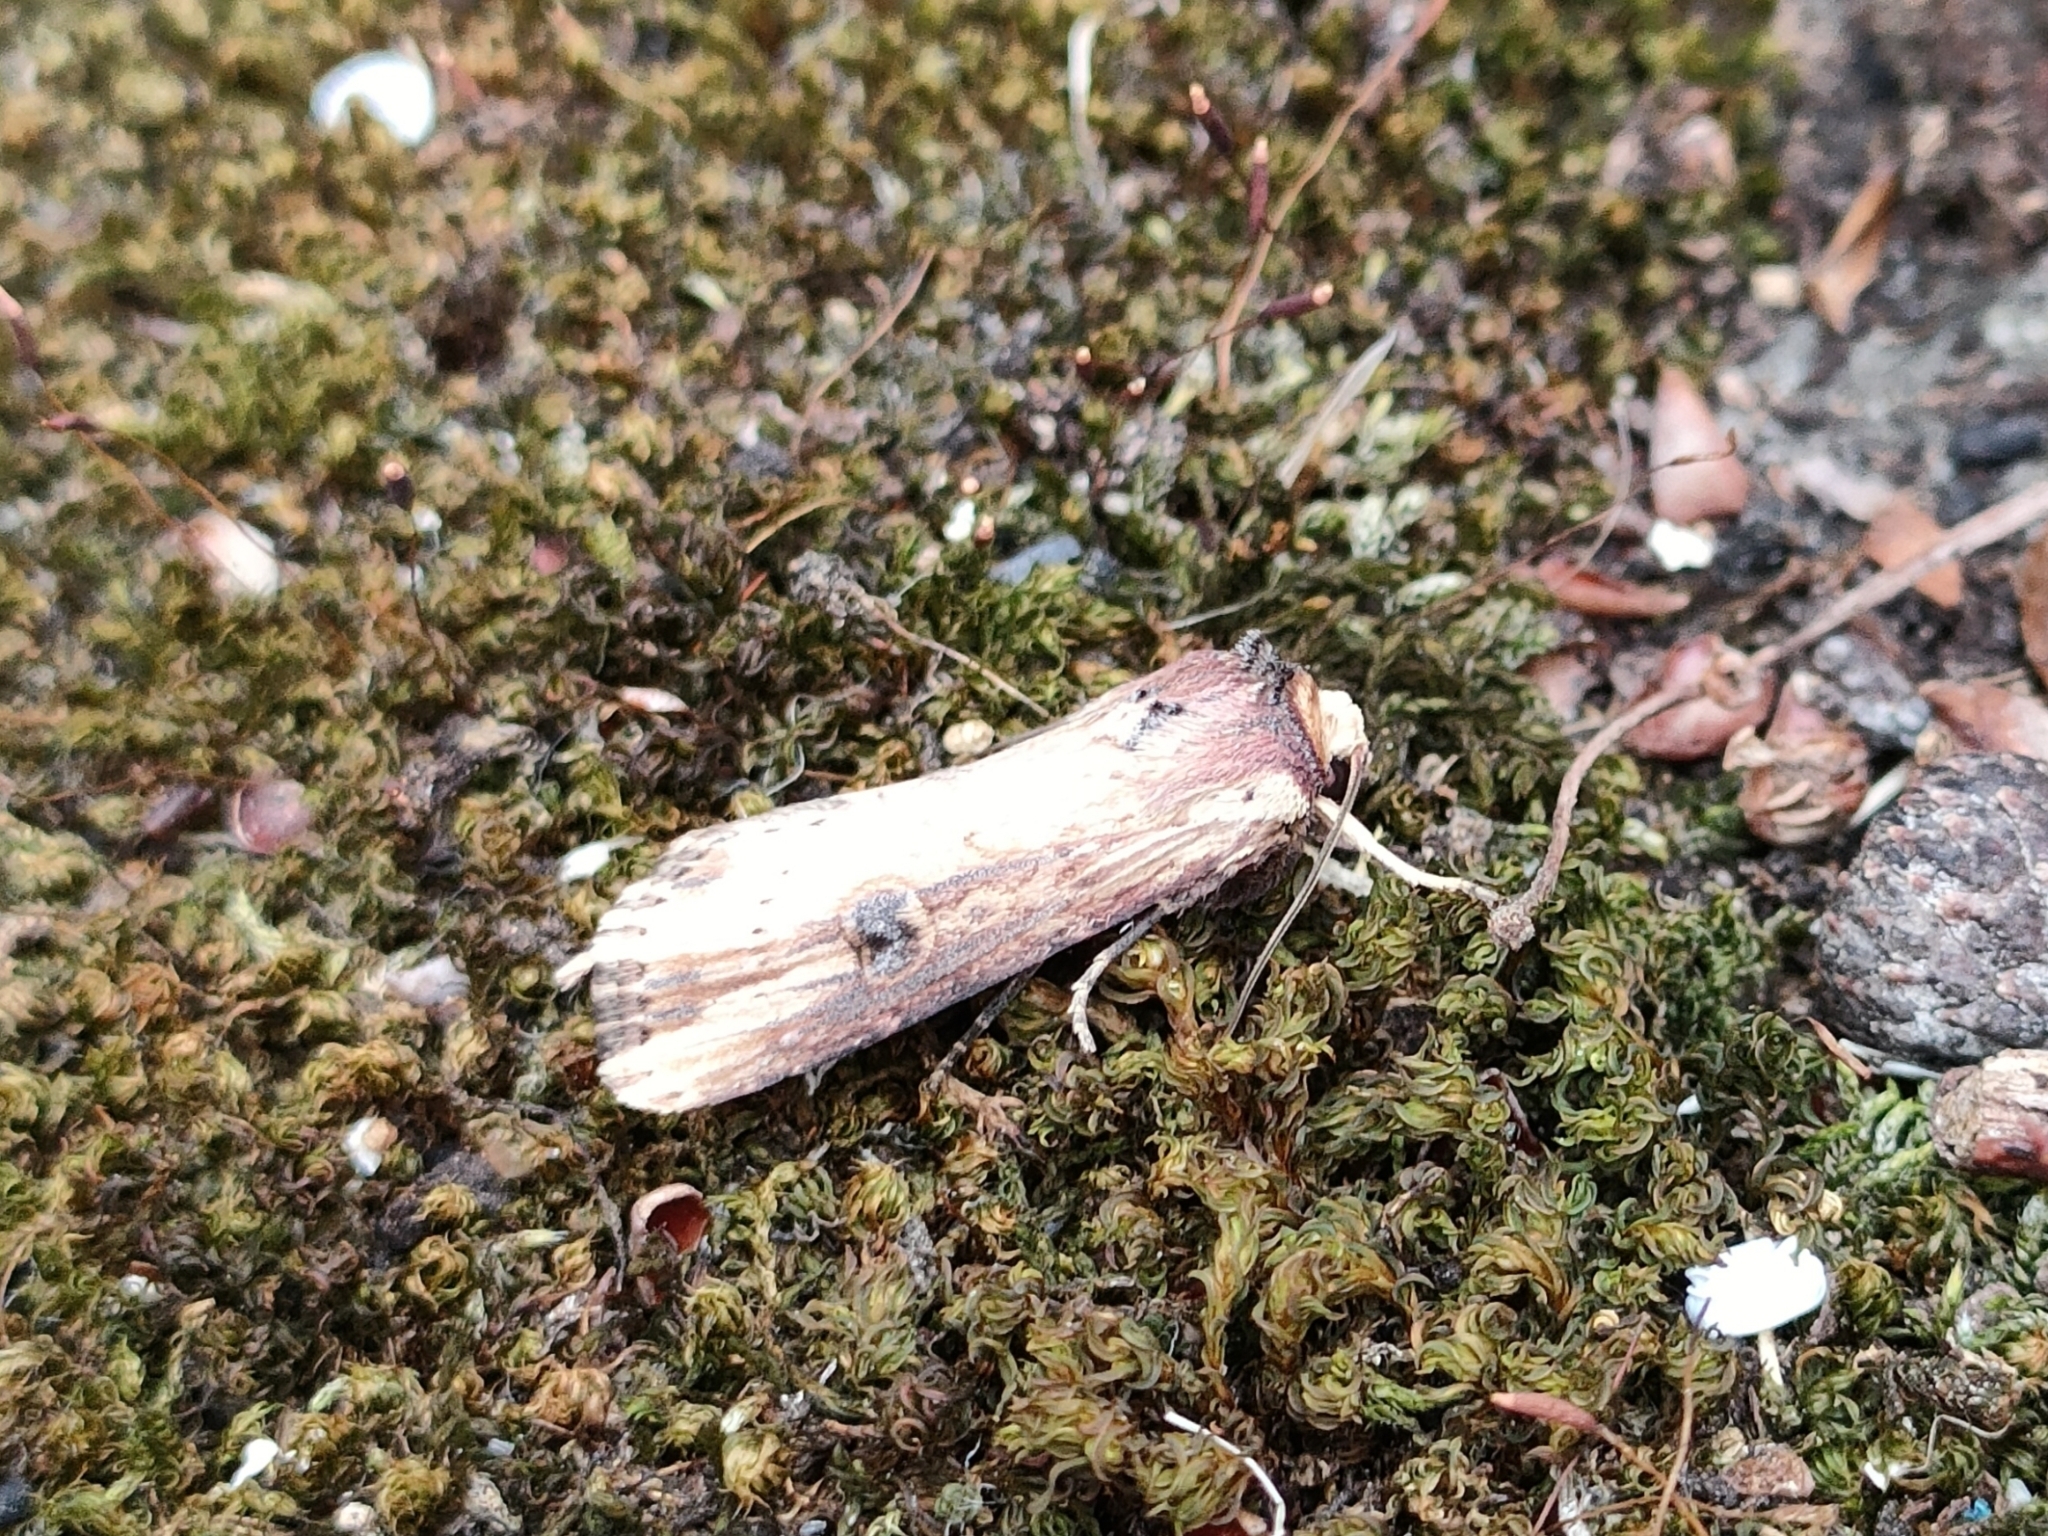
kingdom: Animalia
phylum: Arthropoda
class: Insecta
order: Lepidoptera
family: Noctuidae
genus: Axylia
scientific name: Axylia putris
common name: Flame
